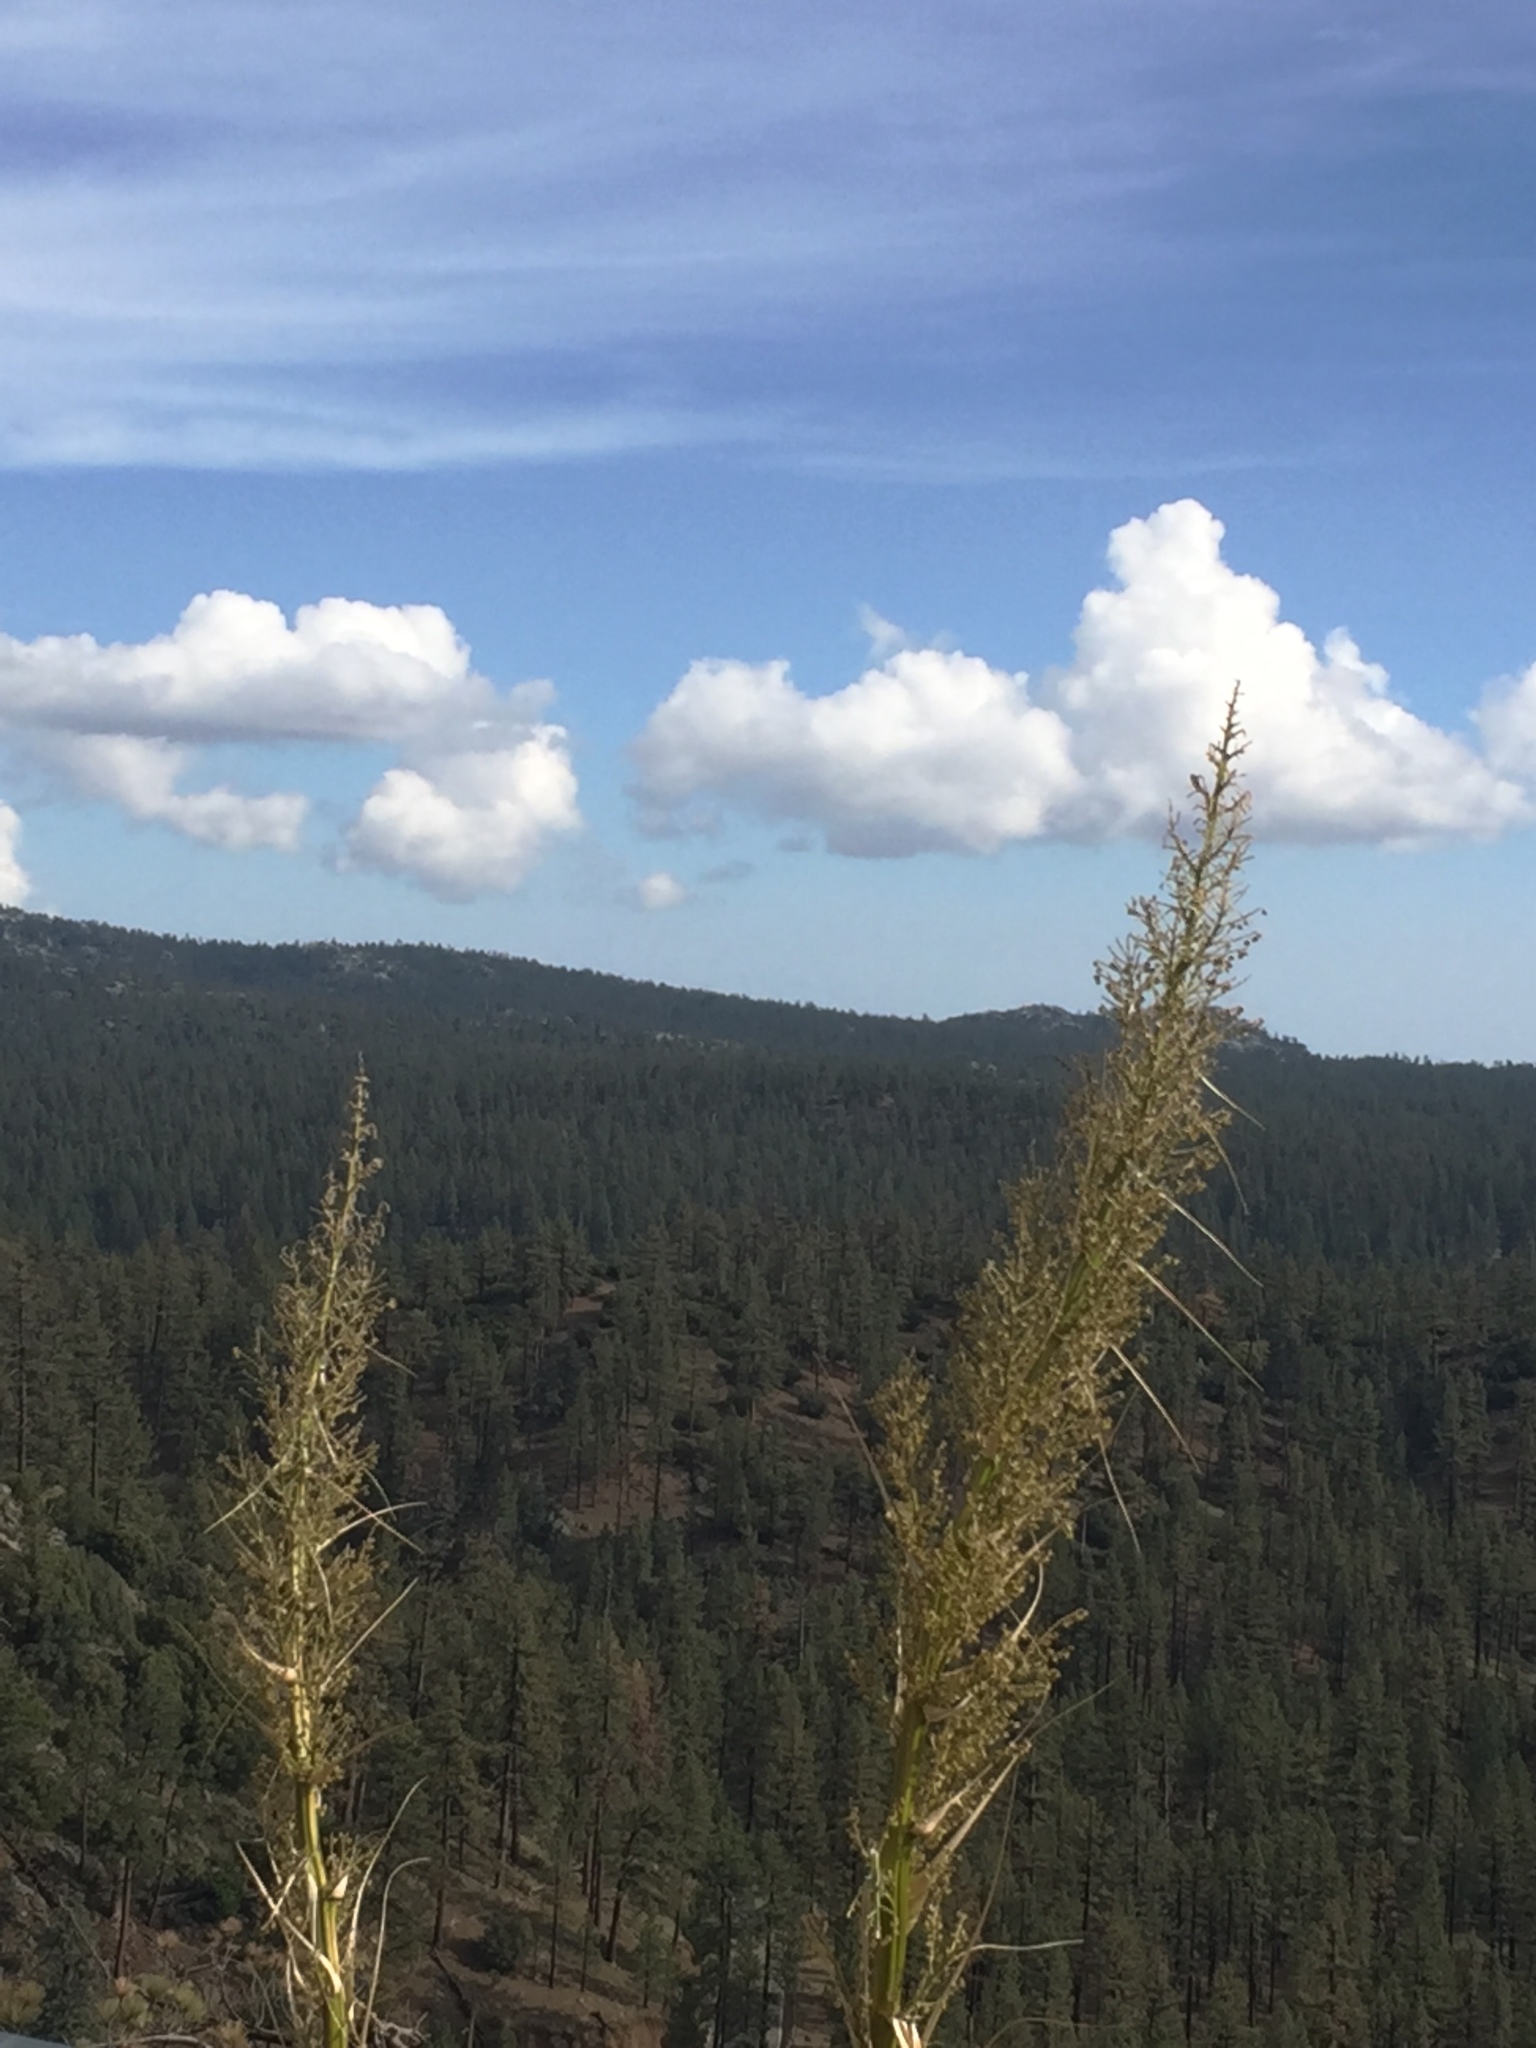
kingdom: Plantae
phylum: Tracheophyta
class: Liliopsida
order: Asparagales
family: Asparagaceae
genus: Nolina
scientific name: Nolina palmeri
